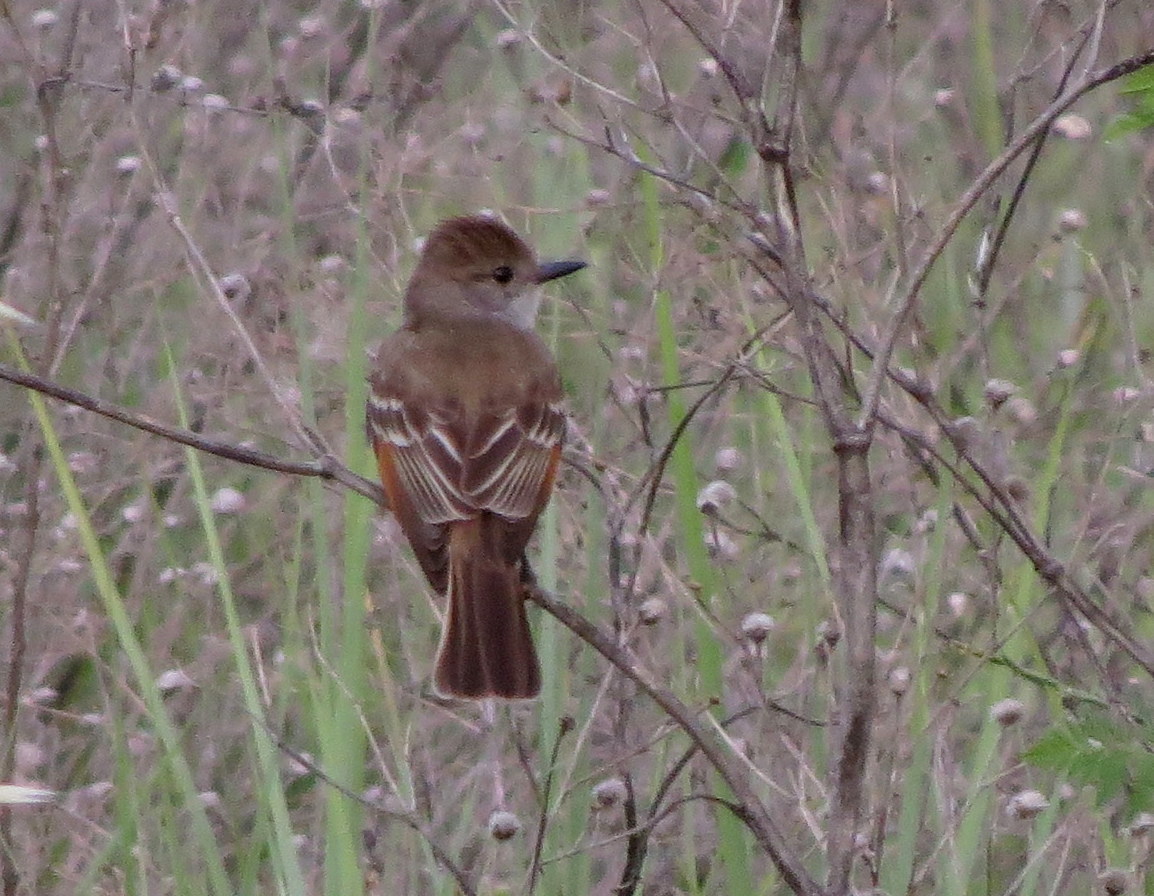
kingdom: Animalia
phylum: Chordata
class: Aves
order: Passeriformes
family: Tyrannidae
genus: Myiarchus
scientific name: Myiarchus cinerascens
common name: Ash-throated flycatcher
